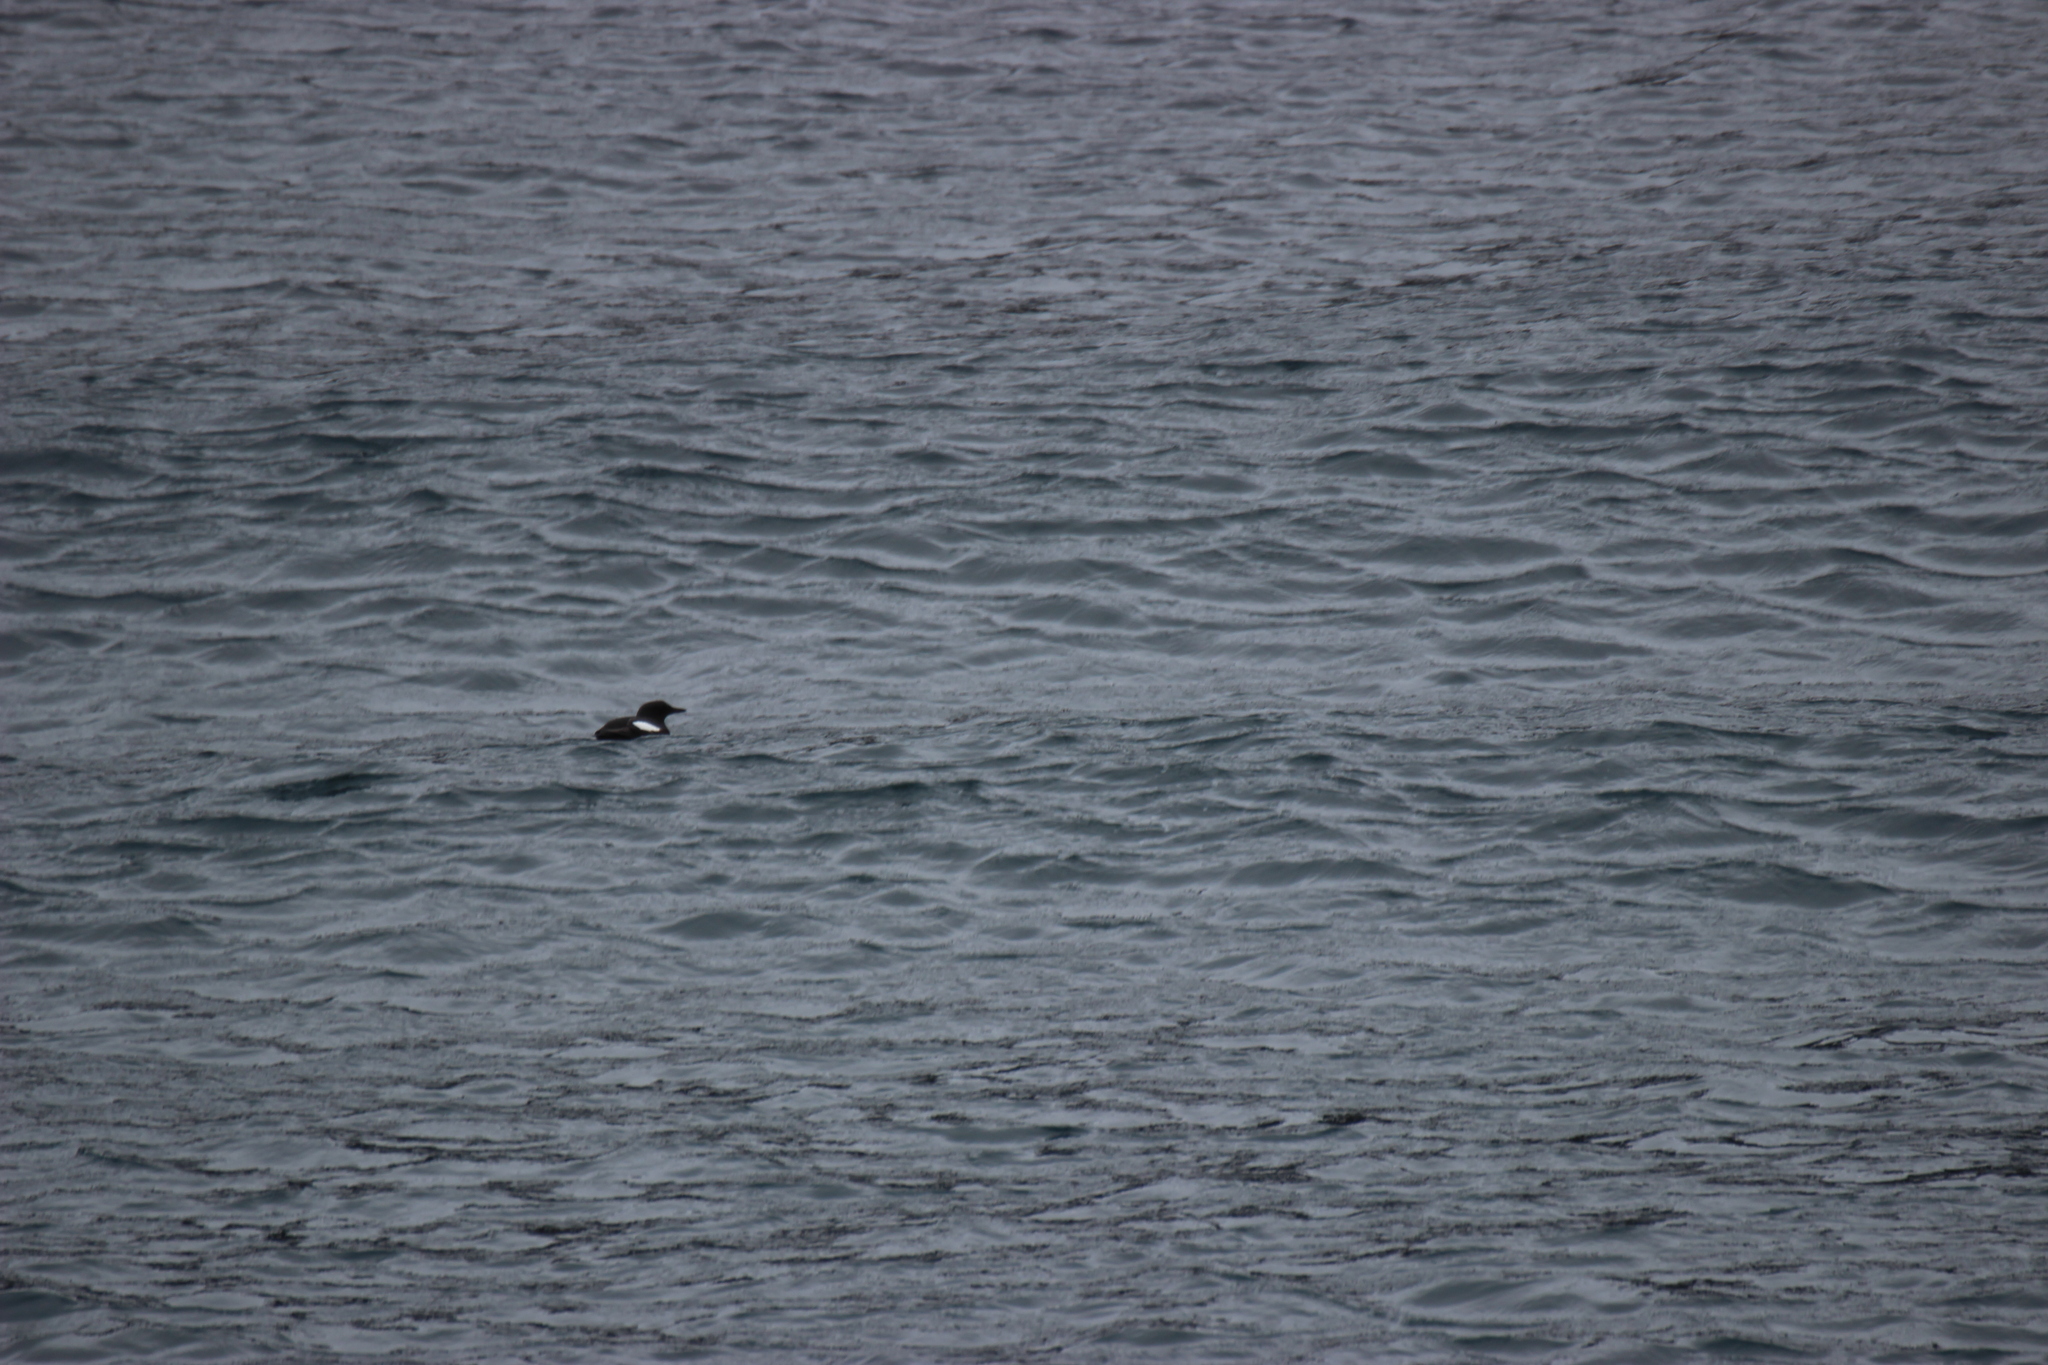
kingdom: Animalia
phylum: Chordata
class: Aves
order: Charadriiformes
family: Alcidae
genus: Cepphus
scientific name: Cepphus grylle
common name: Black guillemot
